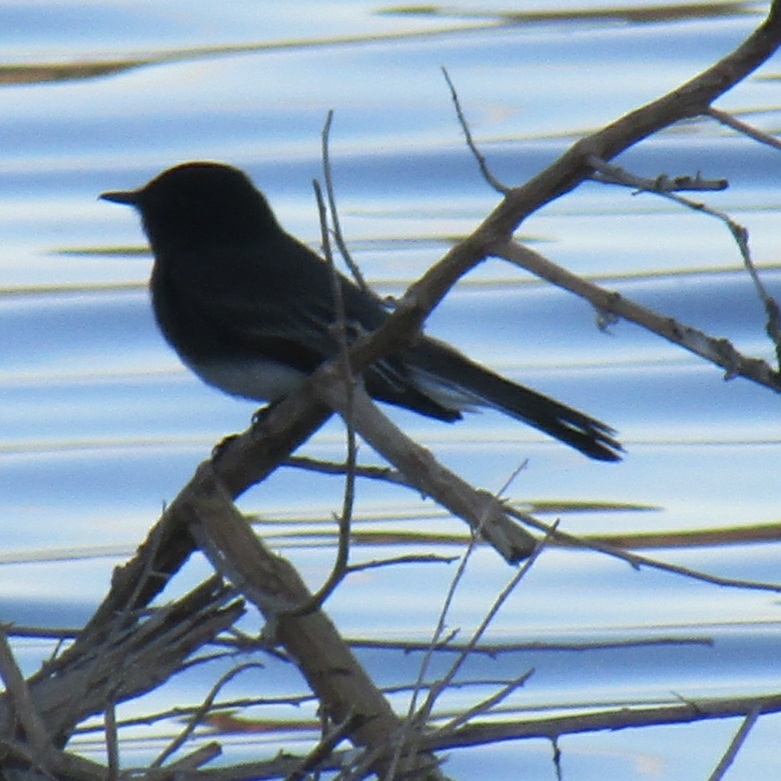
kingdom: Animalia
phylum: Chordata
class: Aves
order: Passeriformes
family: Tyrannidae
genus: Sayornis
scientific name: Sayornis nigricans
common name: Black phoebe
